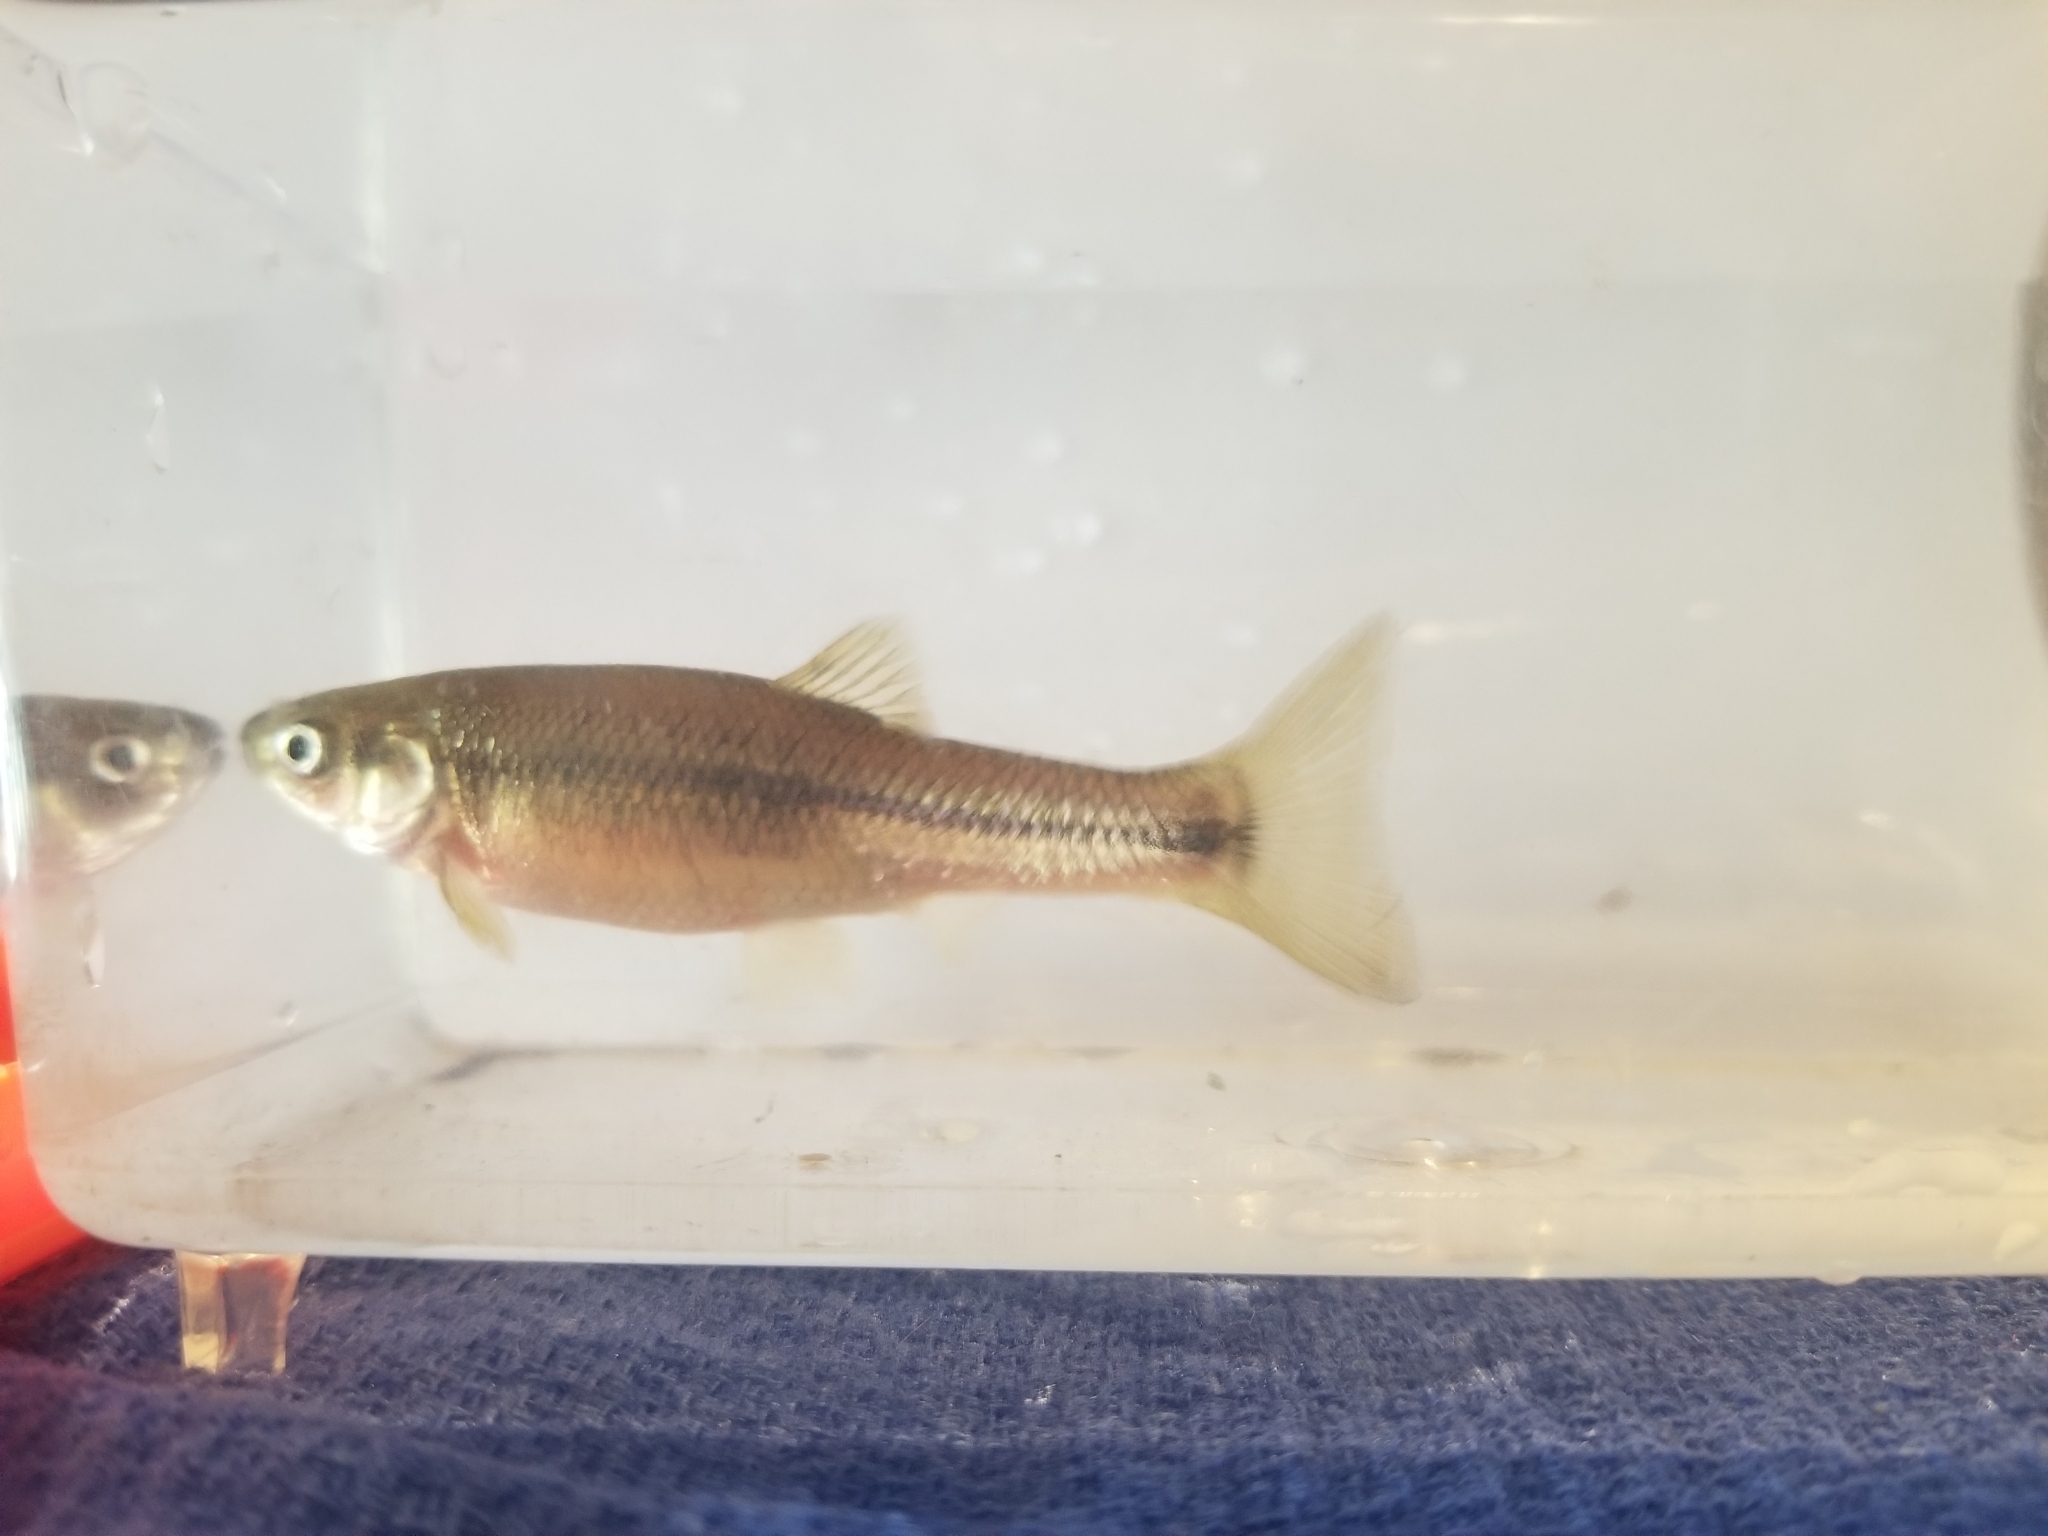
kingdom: Animalia
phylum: Chordata
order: Cypriniformes
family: Cyprinidae
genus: Pimephales
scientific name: Pimephales promelas
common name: Fathead minnow
